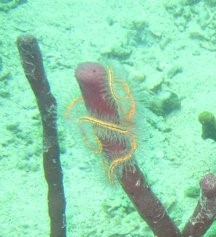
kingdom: Animalia
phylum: Echinodermata
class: Ophiuroidea
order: Amphilepidida
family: Ophiotrichidae
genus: Ophiothrix
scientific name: Ophiothrix suensonii
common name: Sponge brittle star
